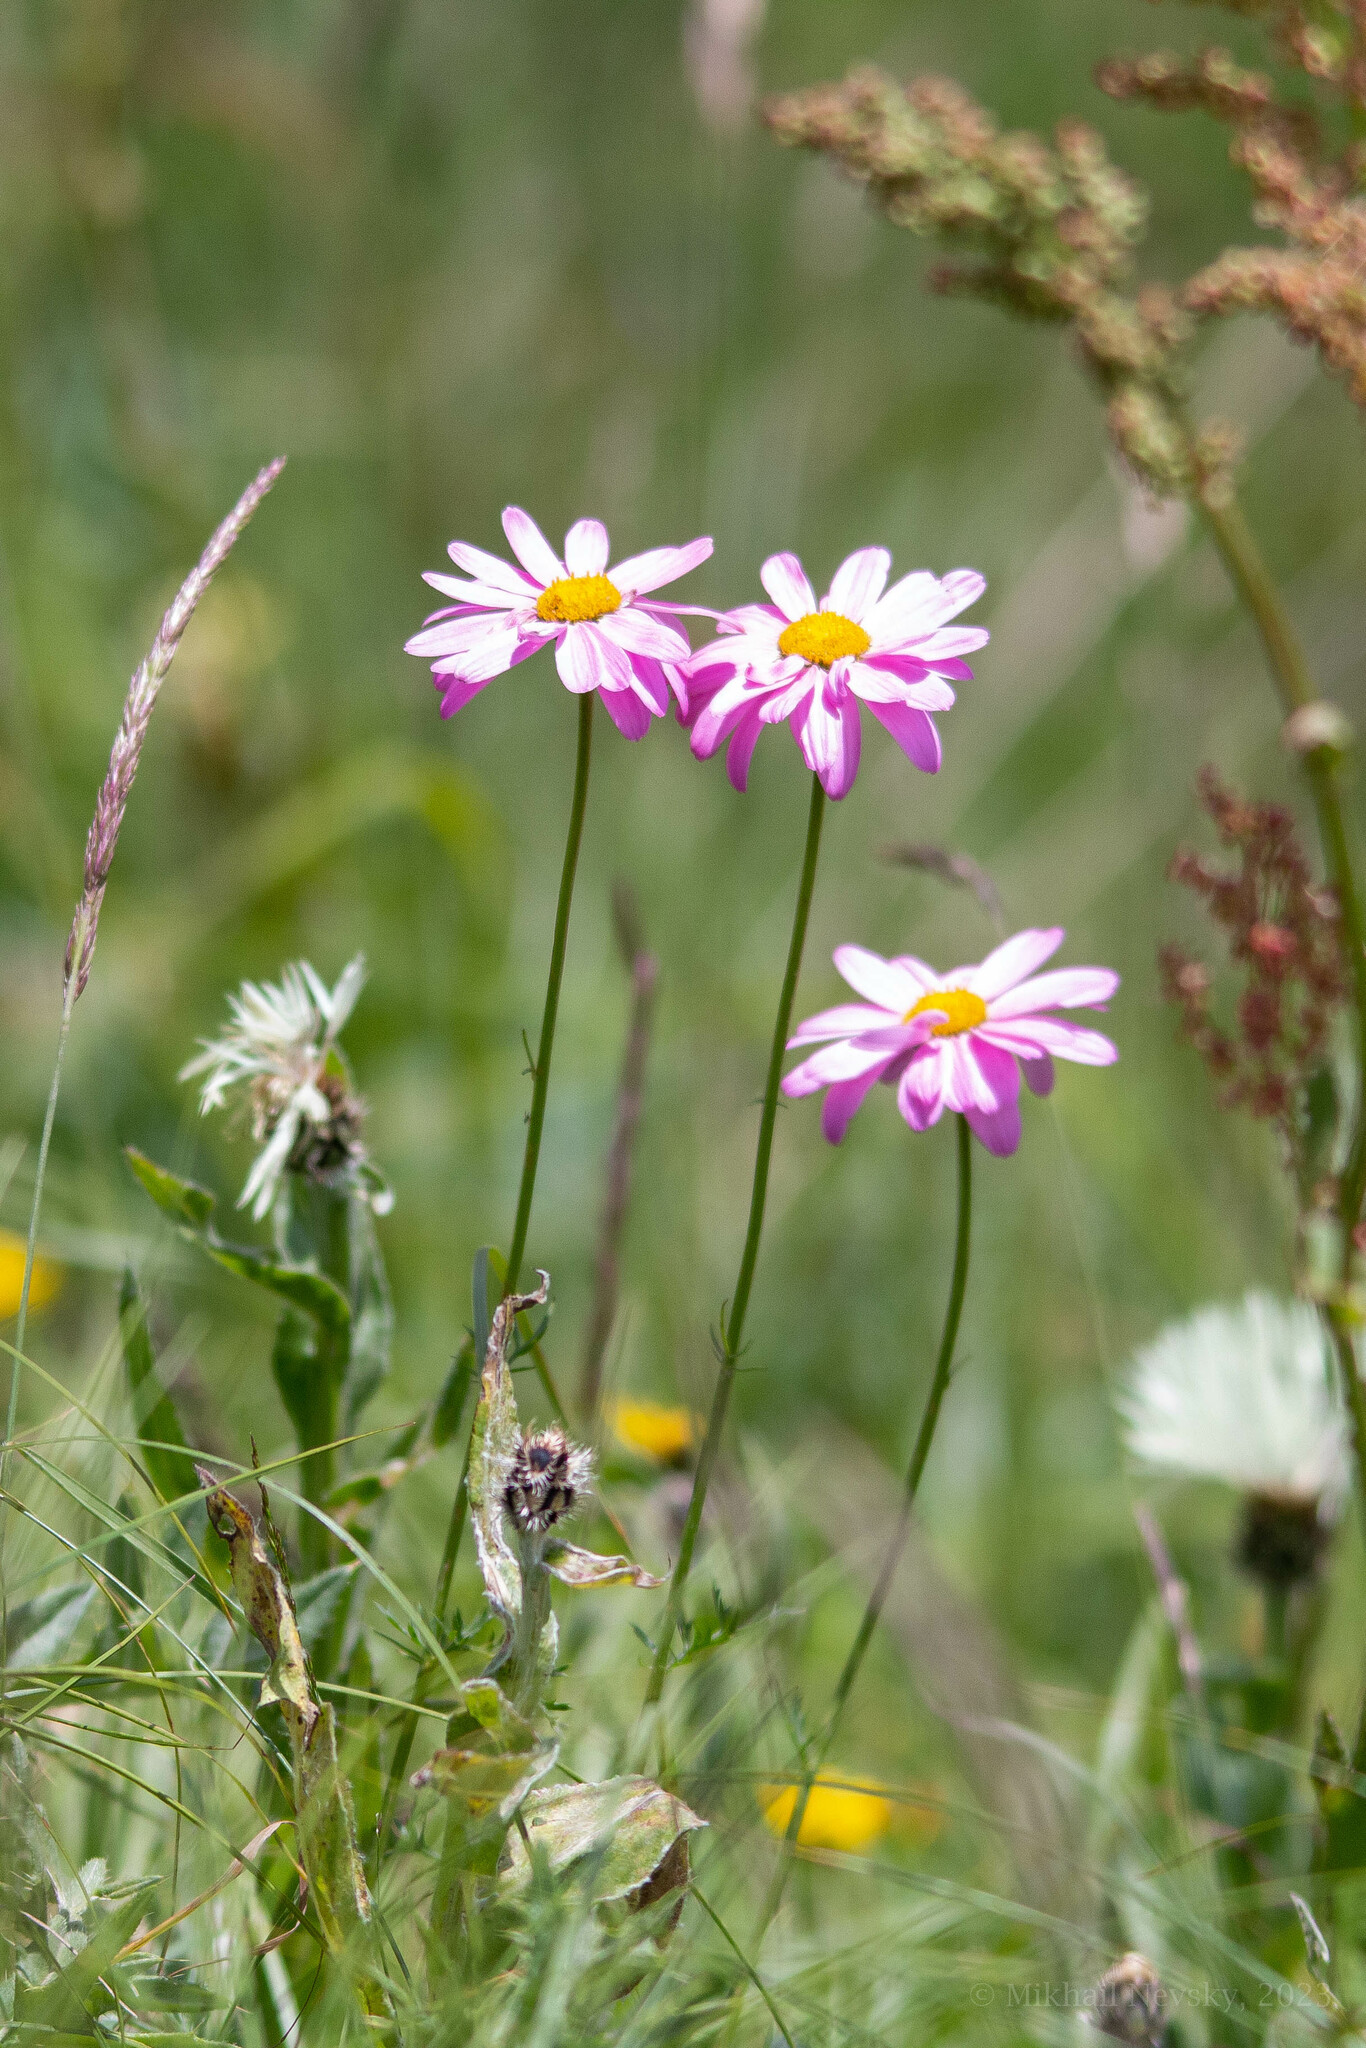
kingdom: Plantae
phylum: Tracheophyta
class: Magnoliopsida
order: Asterales
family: Asteraceae
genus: Tanacetum
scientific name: Tanacetum coccineum
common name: Pyrethum daisy
